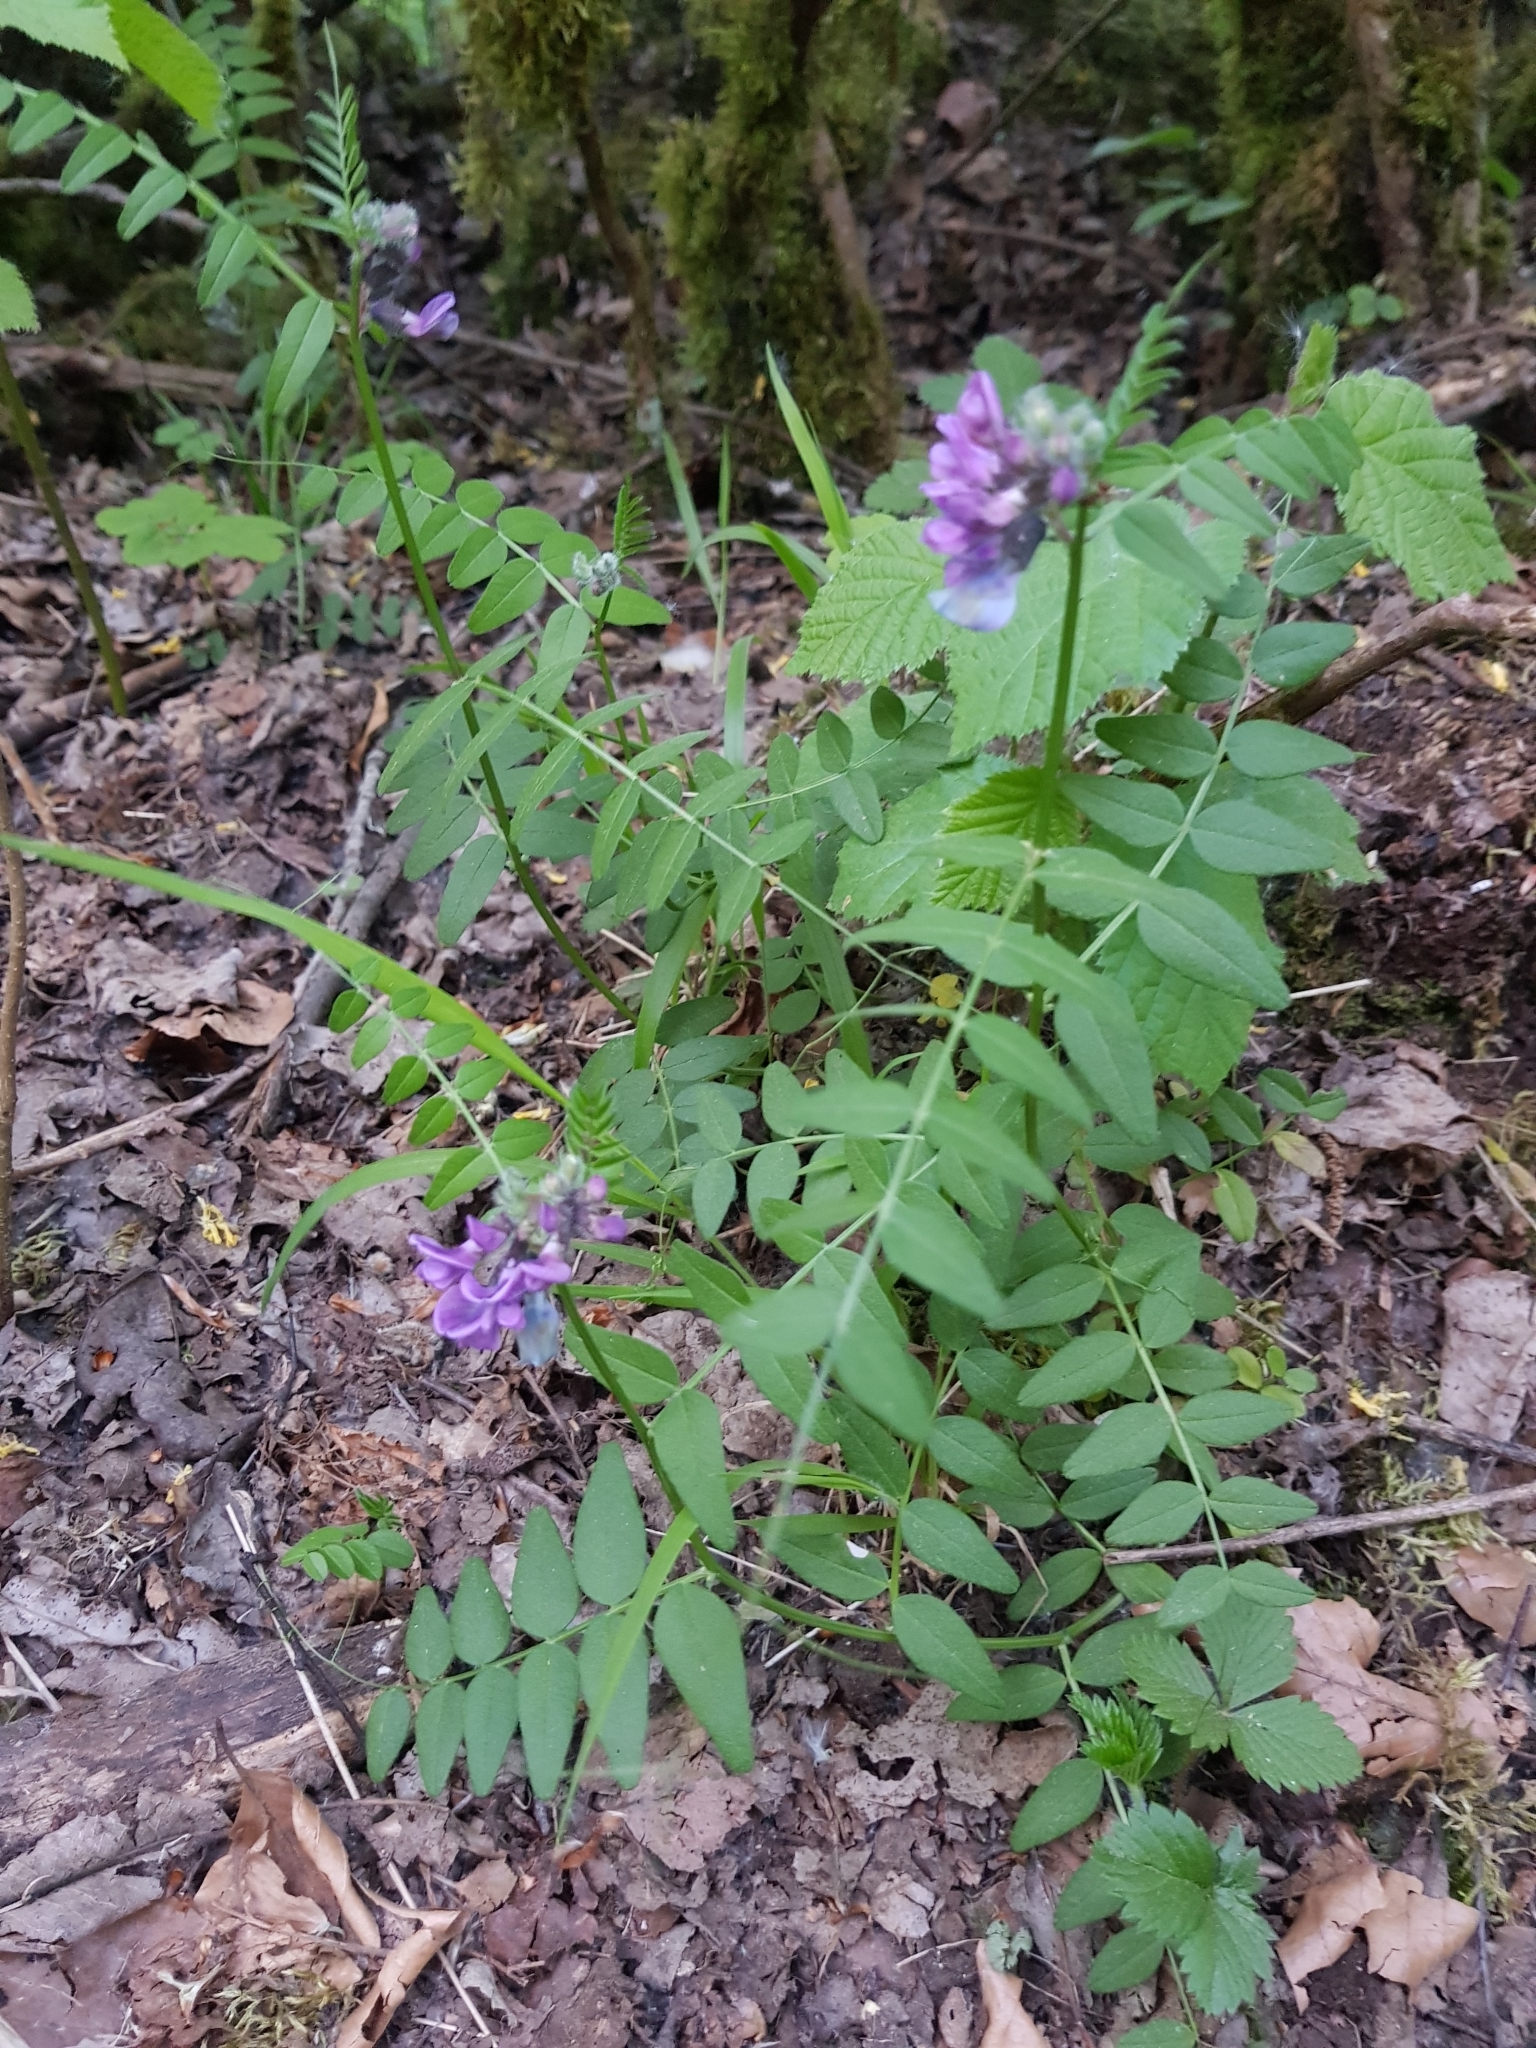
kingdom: Plantae
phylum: Tracheophyta
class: Magnoliopsida
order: Fabales
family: Fabaceae
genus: Vicia
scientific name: Vicia sepium
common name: Bush vetch
